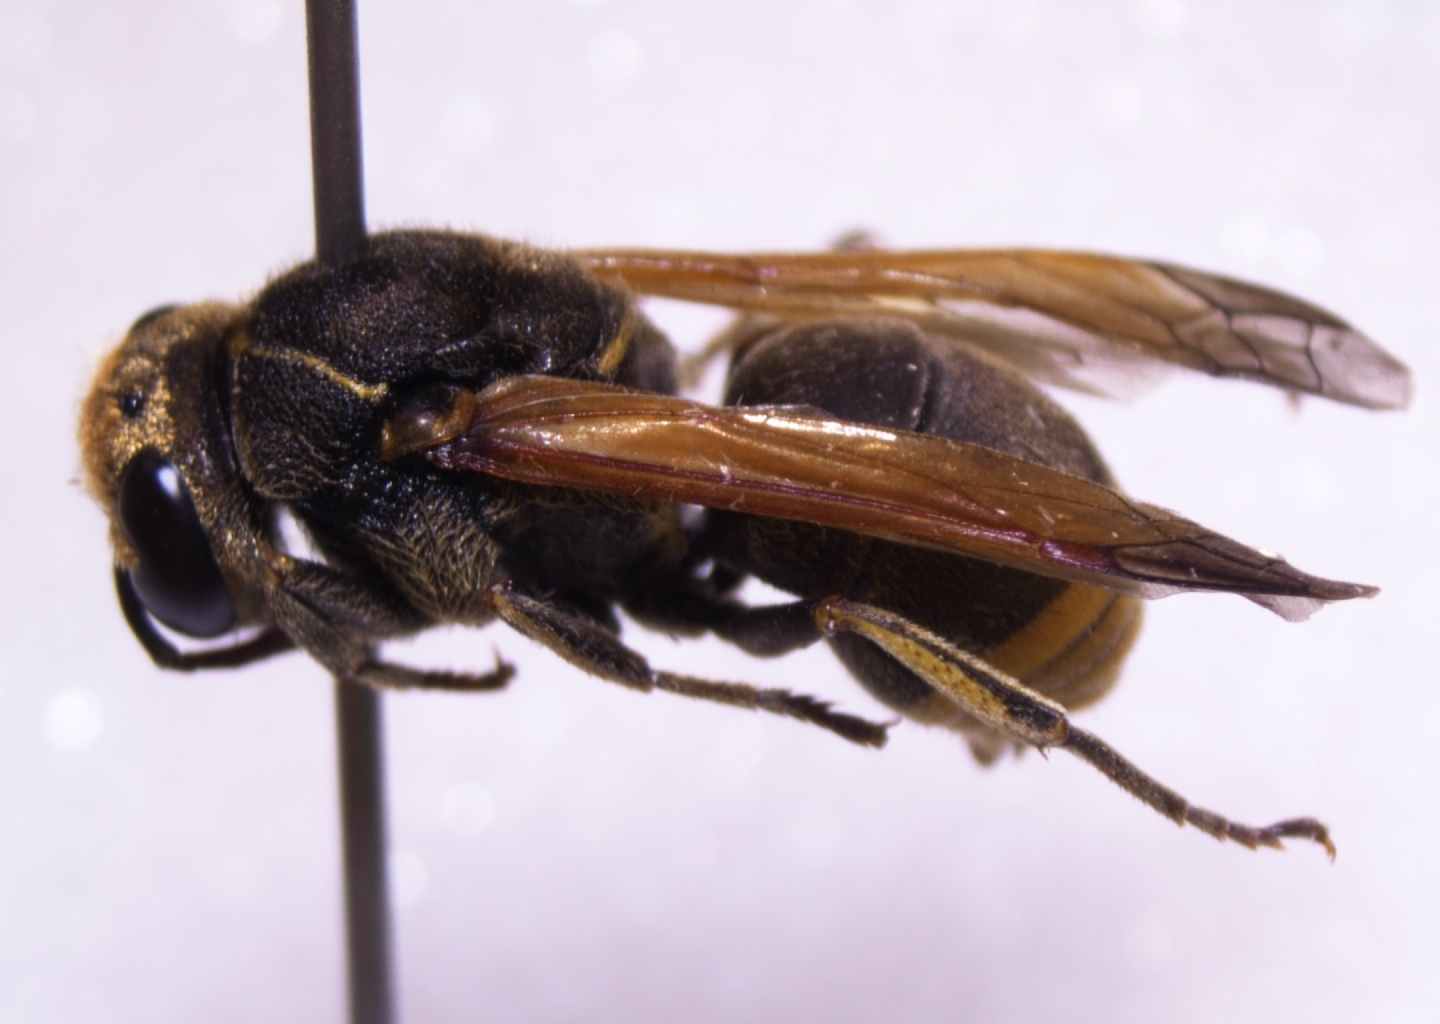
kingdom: Animalia
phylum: Arthropoda
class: Insecta
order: Hymenoptera
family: Eumenidae
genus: Pachodynerus
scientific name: Pachodynerus nasidens
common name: Key hole wasp
